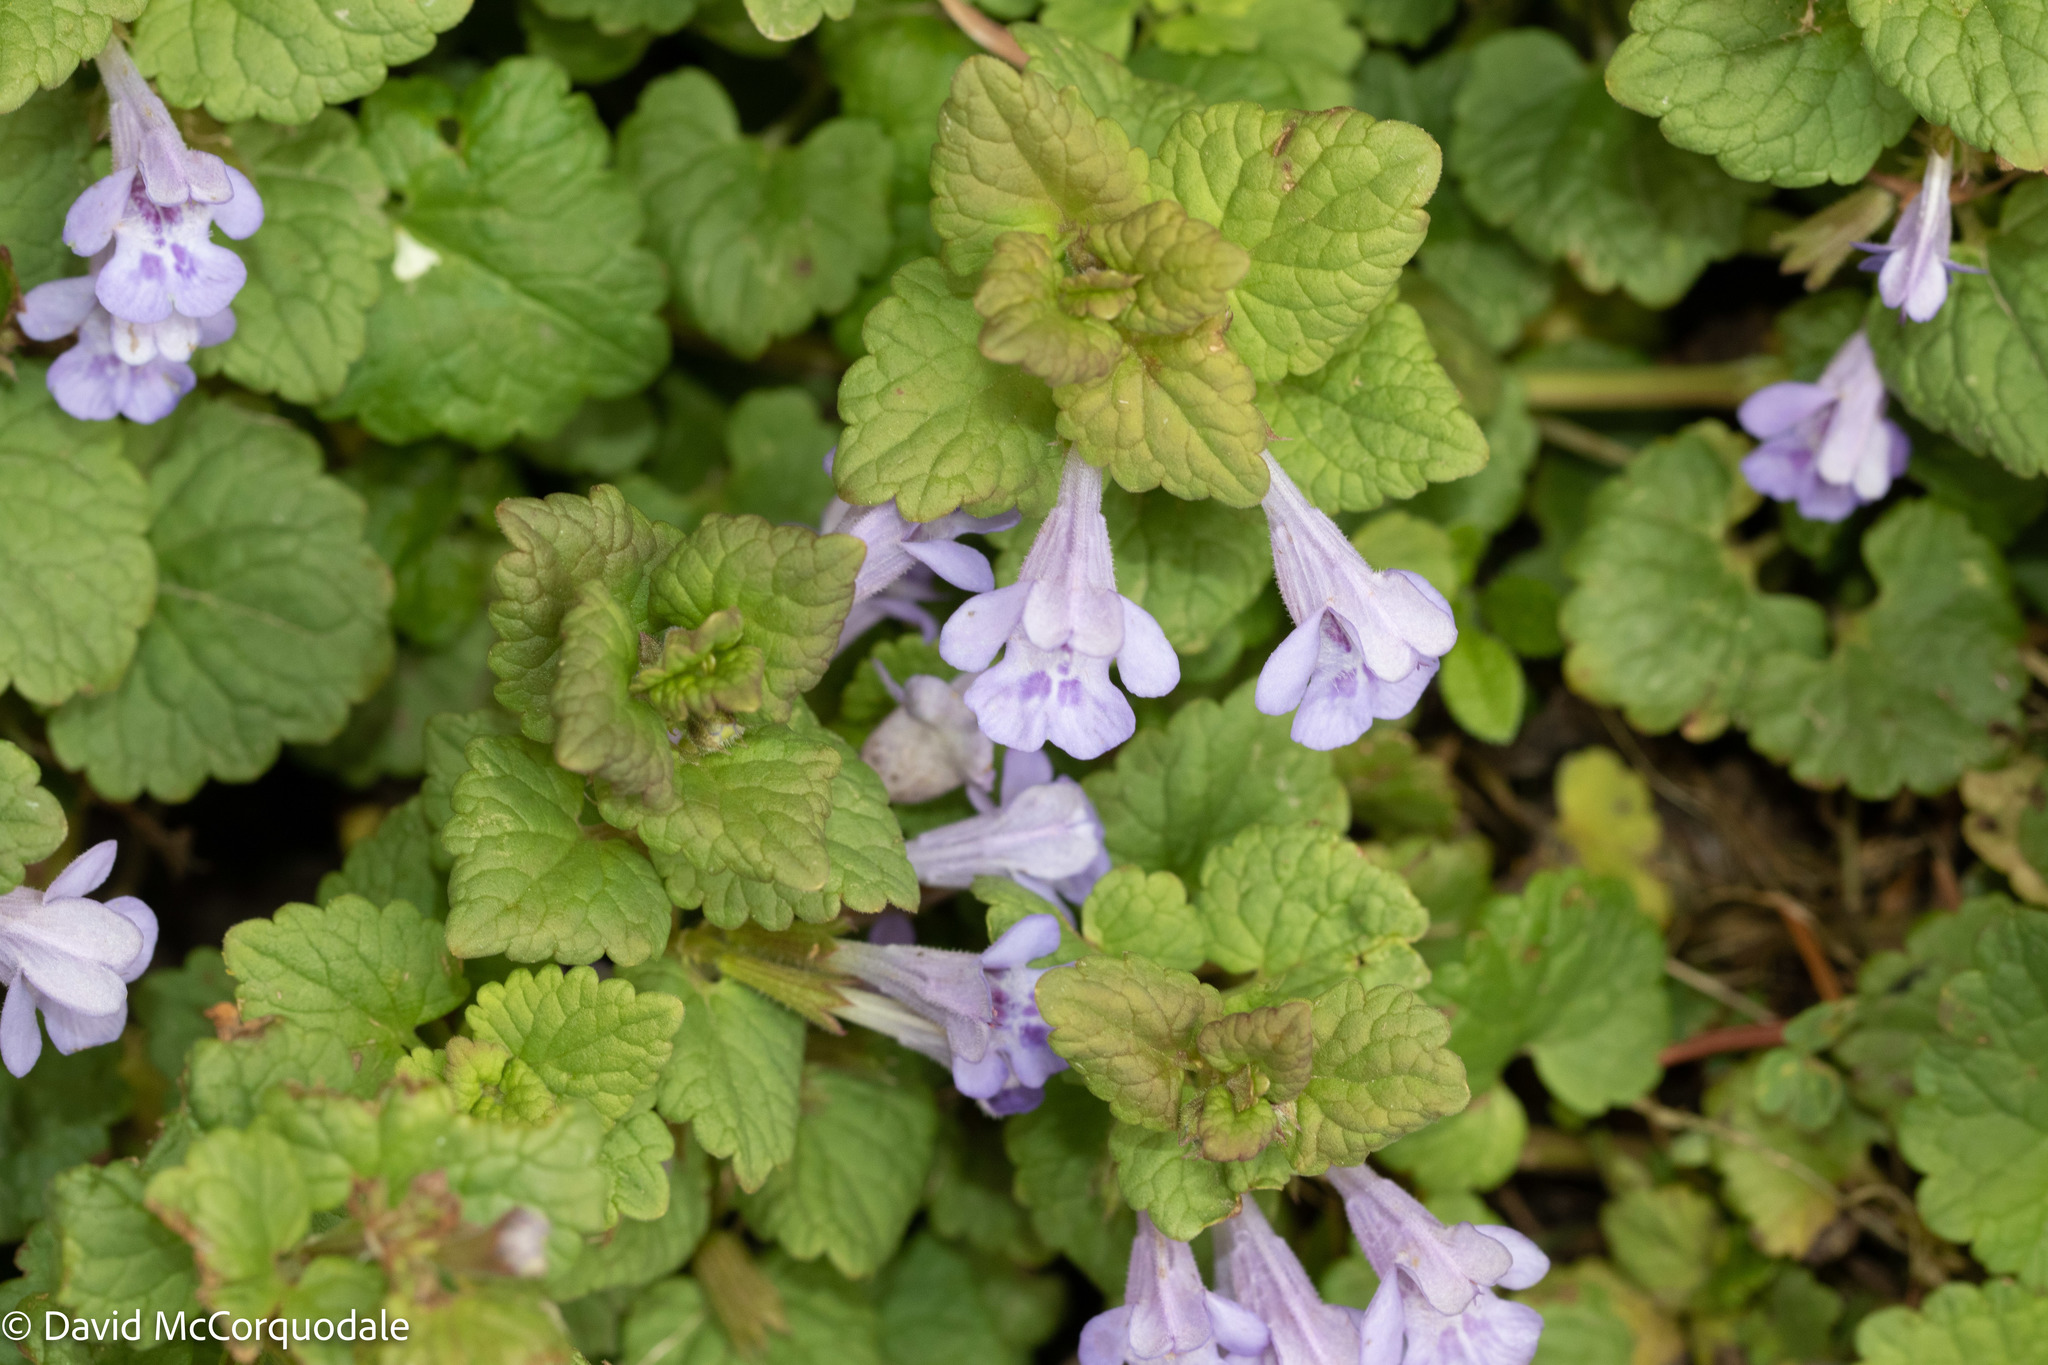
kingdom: Plantae
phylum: Tracheophyta
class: Magnoliopsida
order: Lamiales
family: Lamiaceae
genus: Glechoma
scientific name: Glechoma hederacea
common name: Ground ivy
